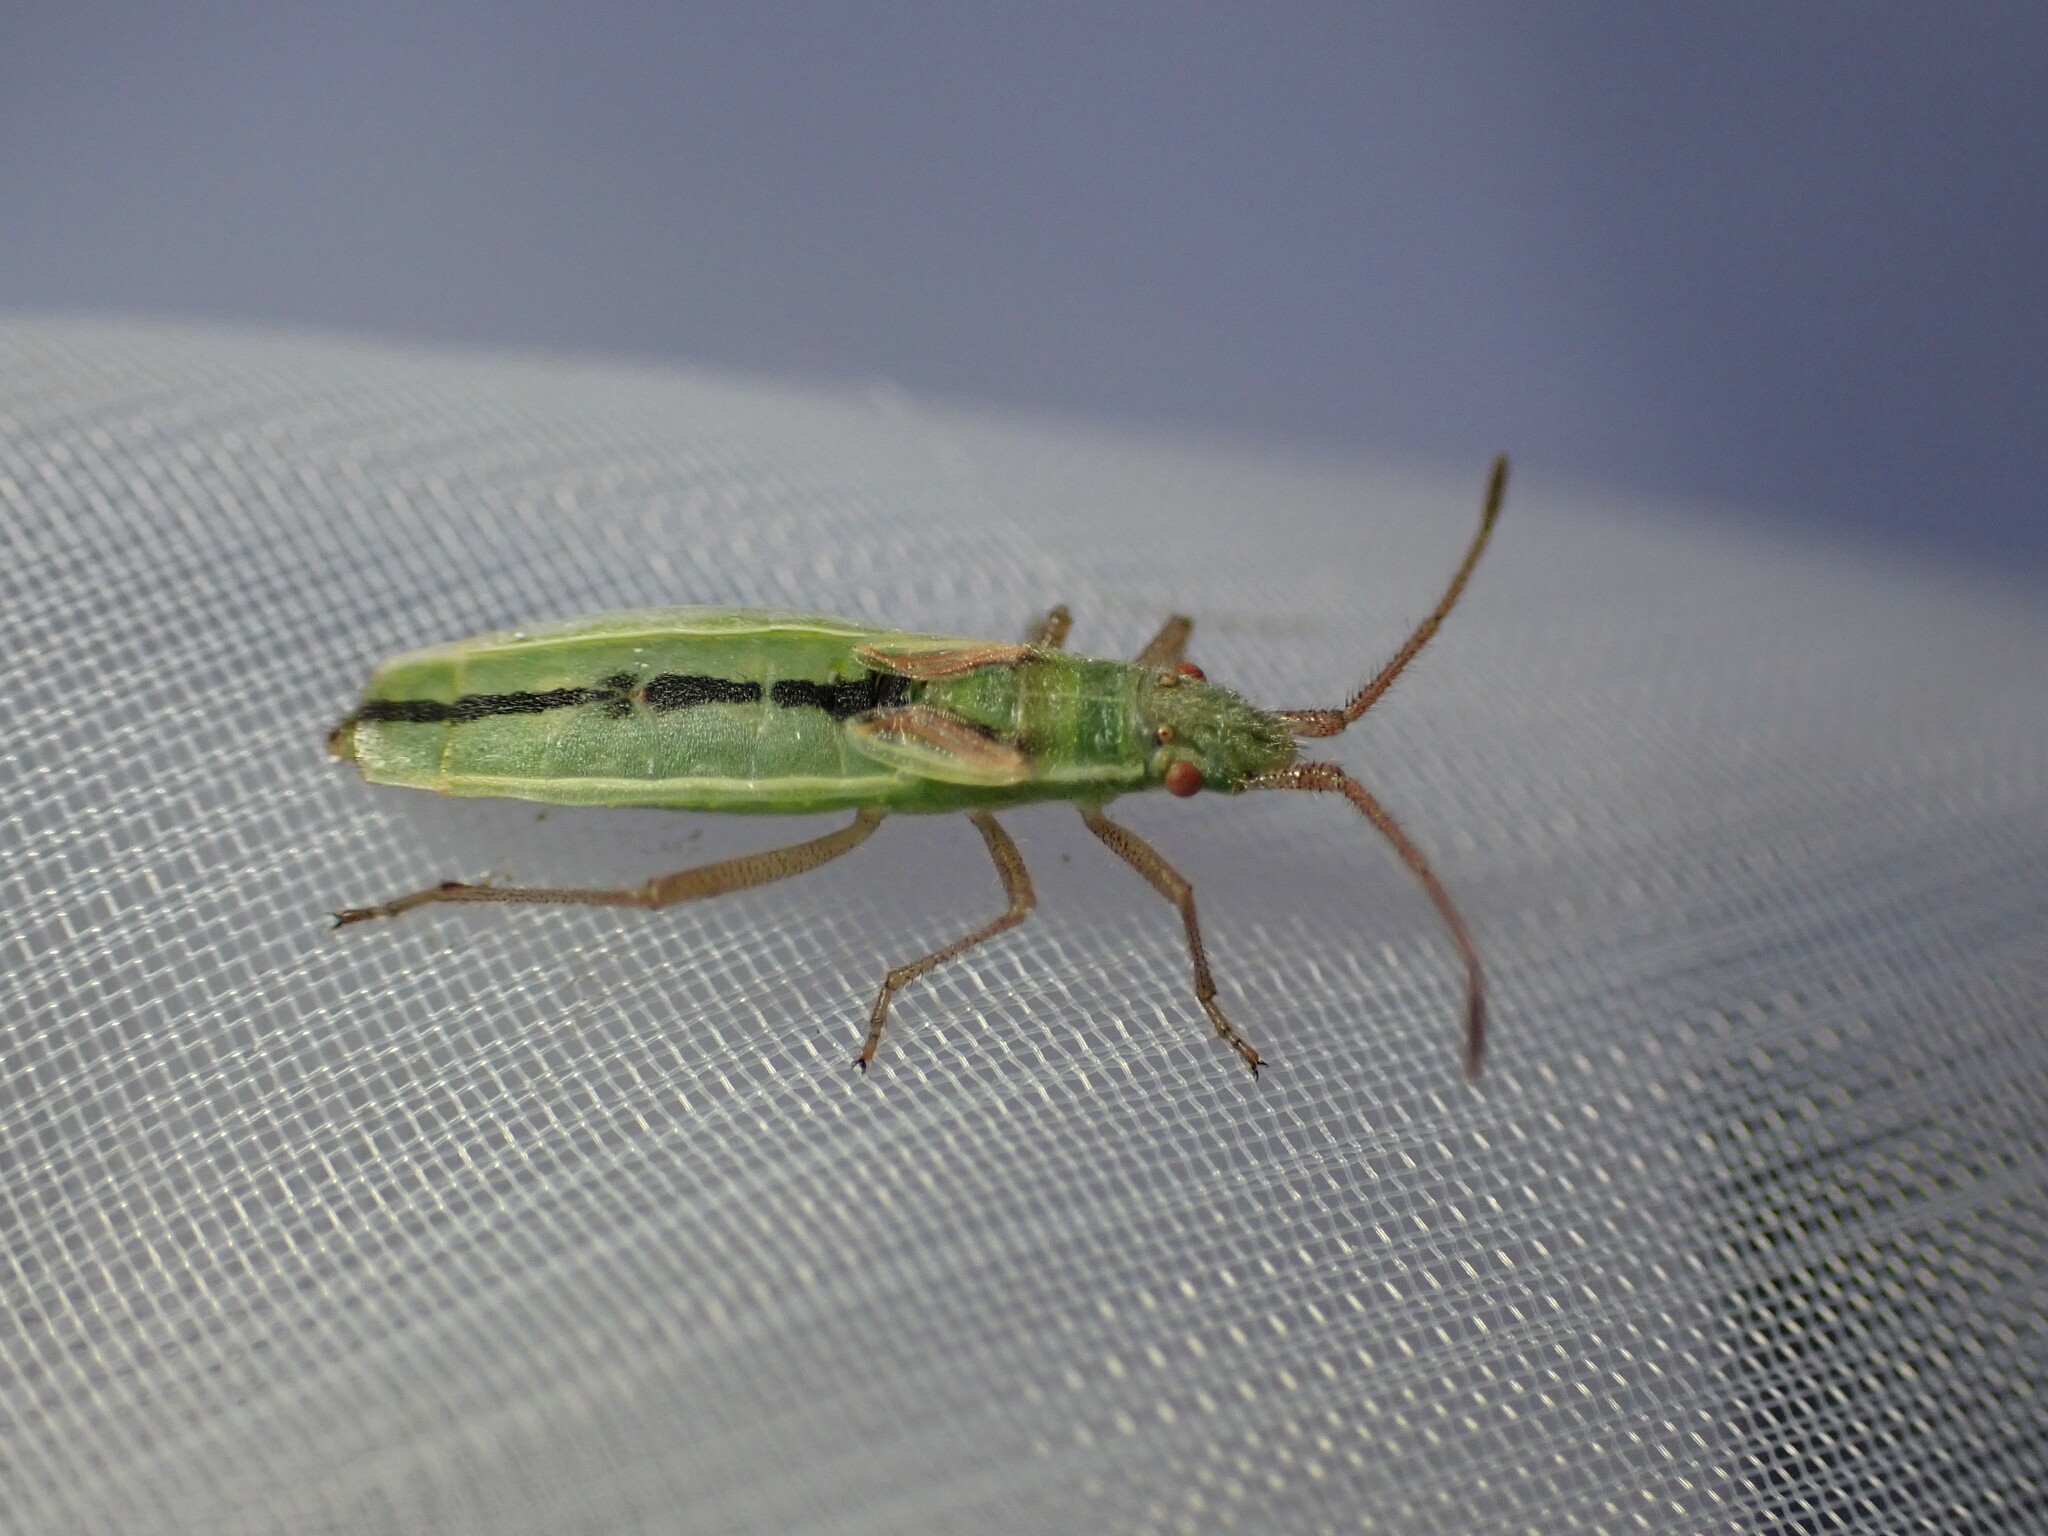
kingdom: Animalia
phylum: Arthropoda
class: Insecta
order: Hemiptera
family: Rhopalidae
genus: Myrmus
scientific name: Myrmus miriformis
